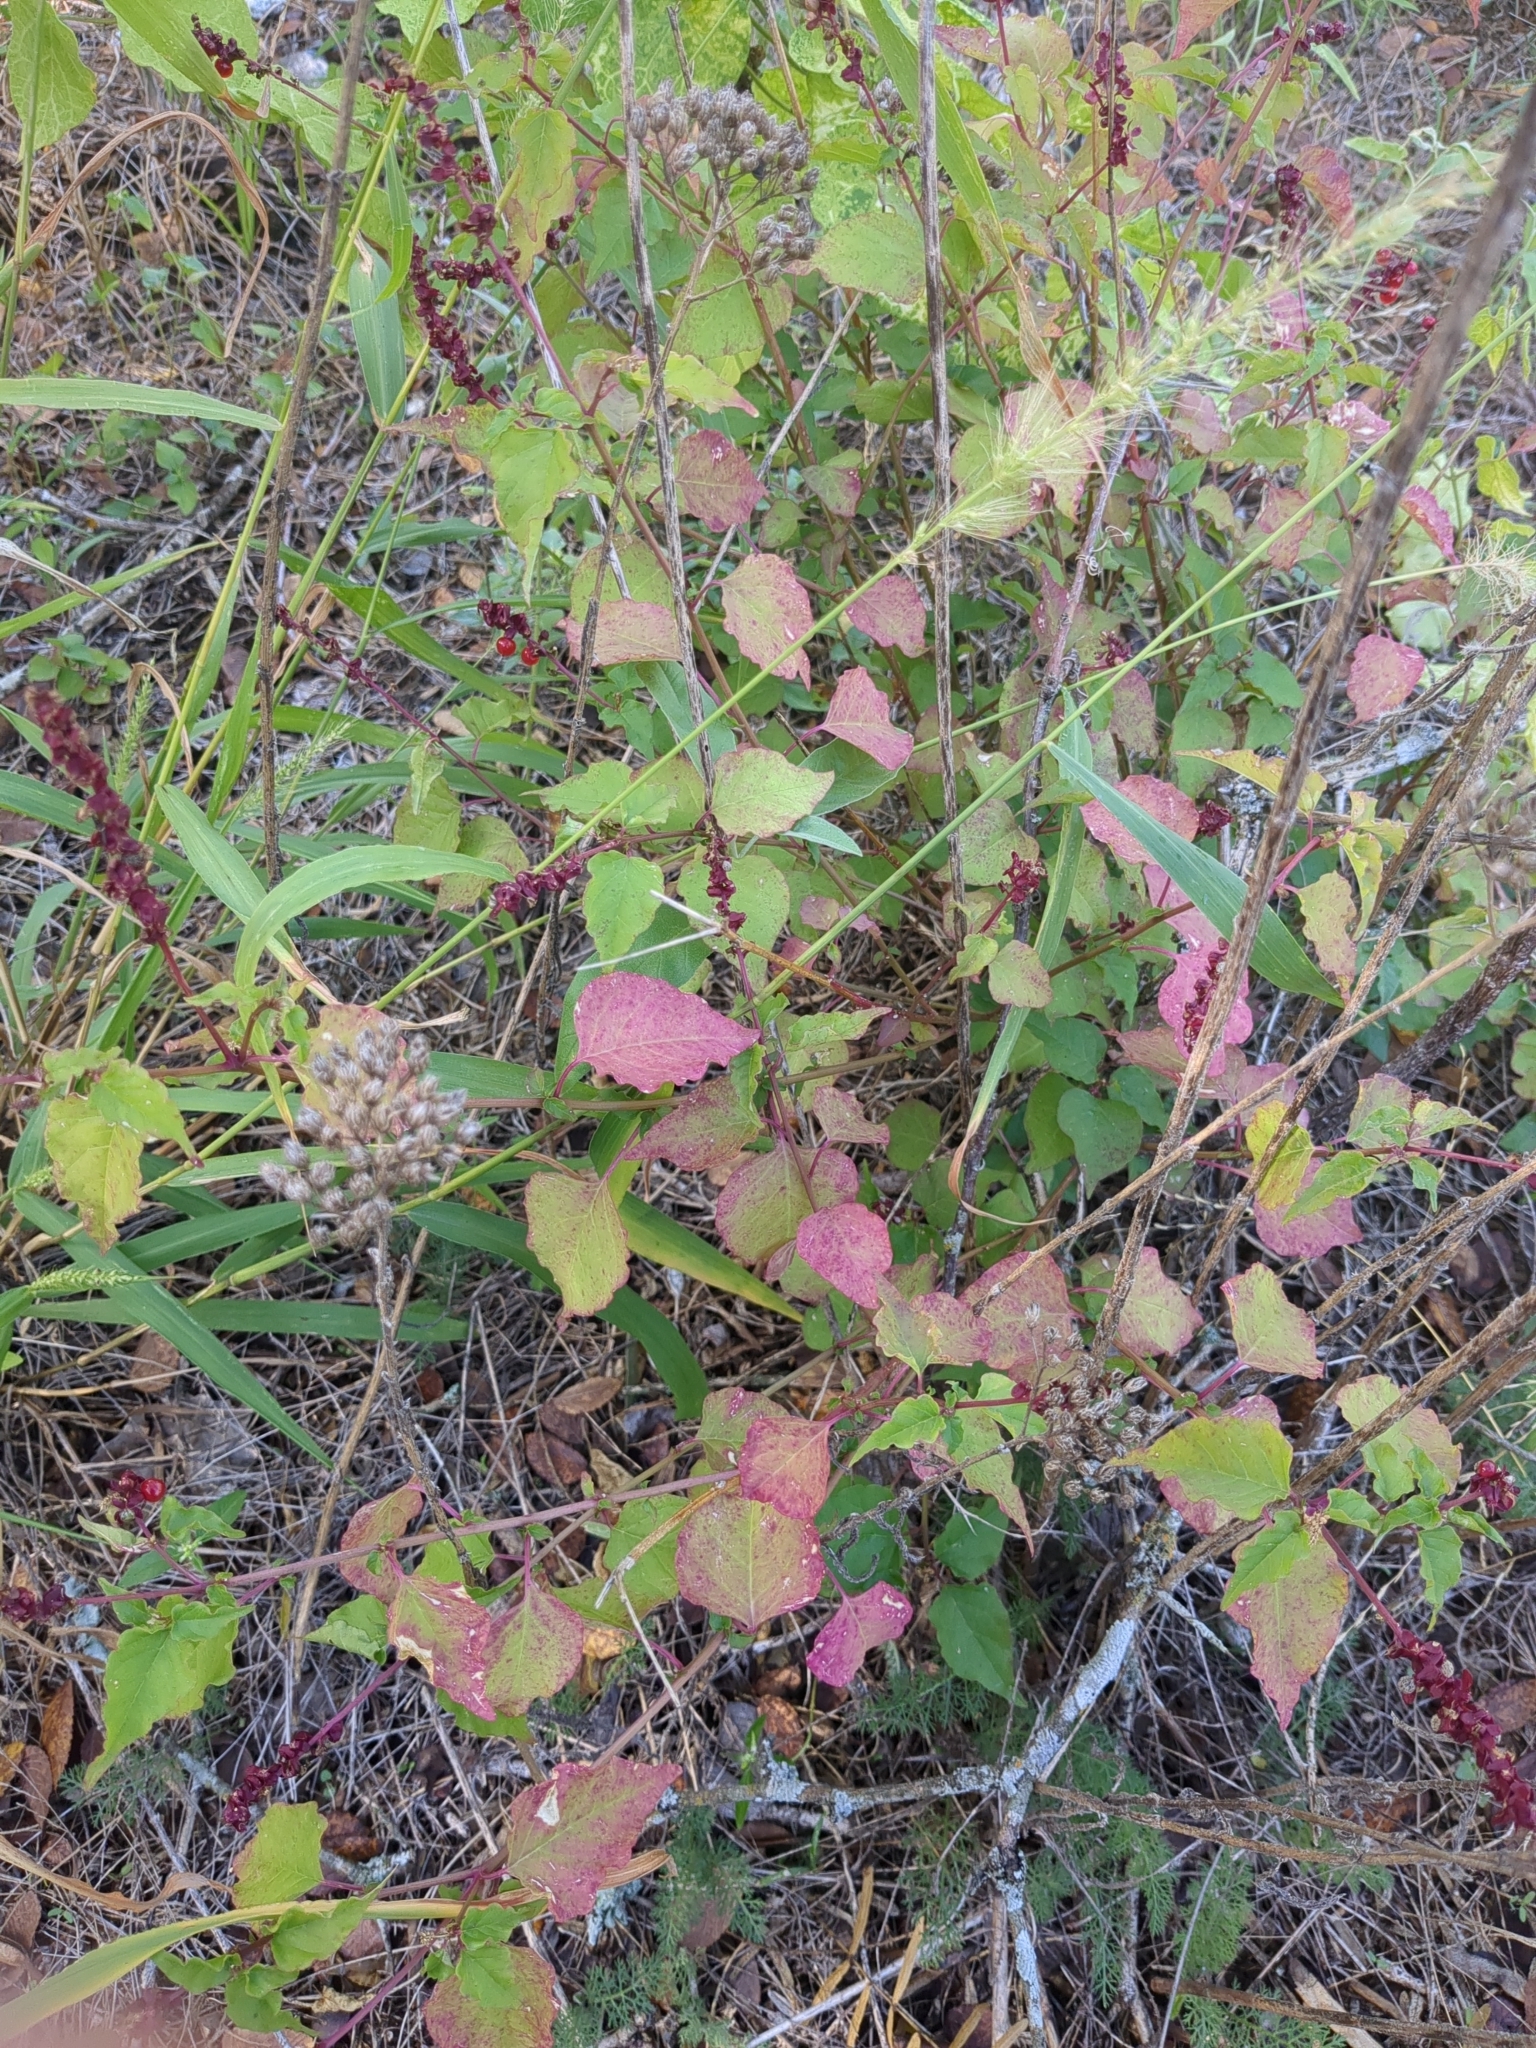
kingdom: Plantae
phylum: Tracheophyta
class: Magnoliopsida
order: Caryophyllales
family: Phytolaccaceae
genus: Rivina
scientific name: Rivina humilis
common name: Rougeplant
